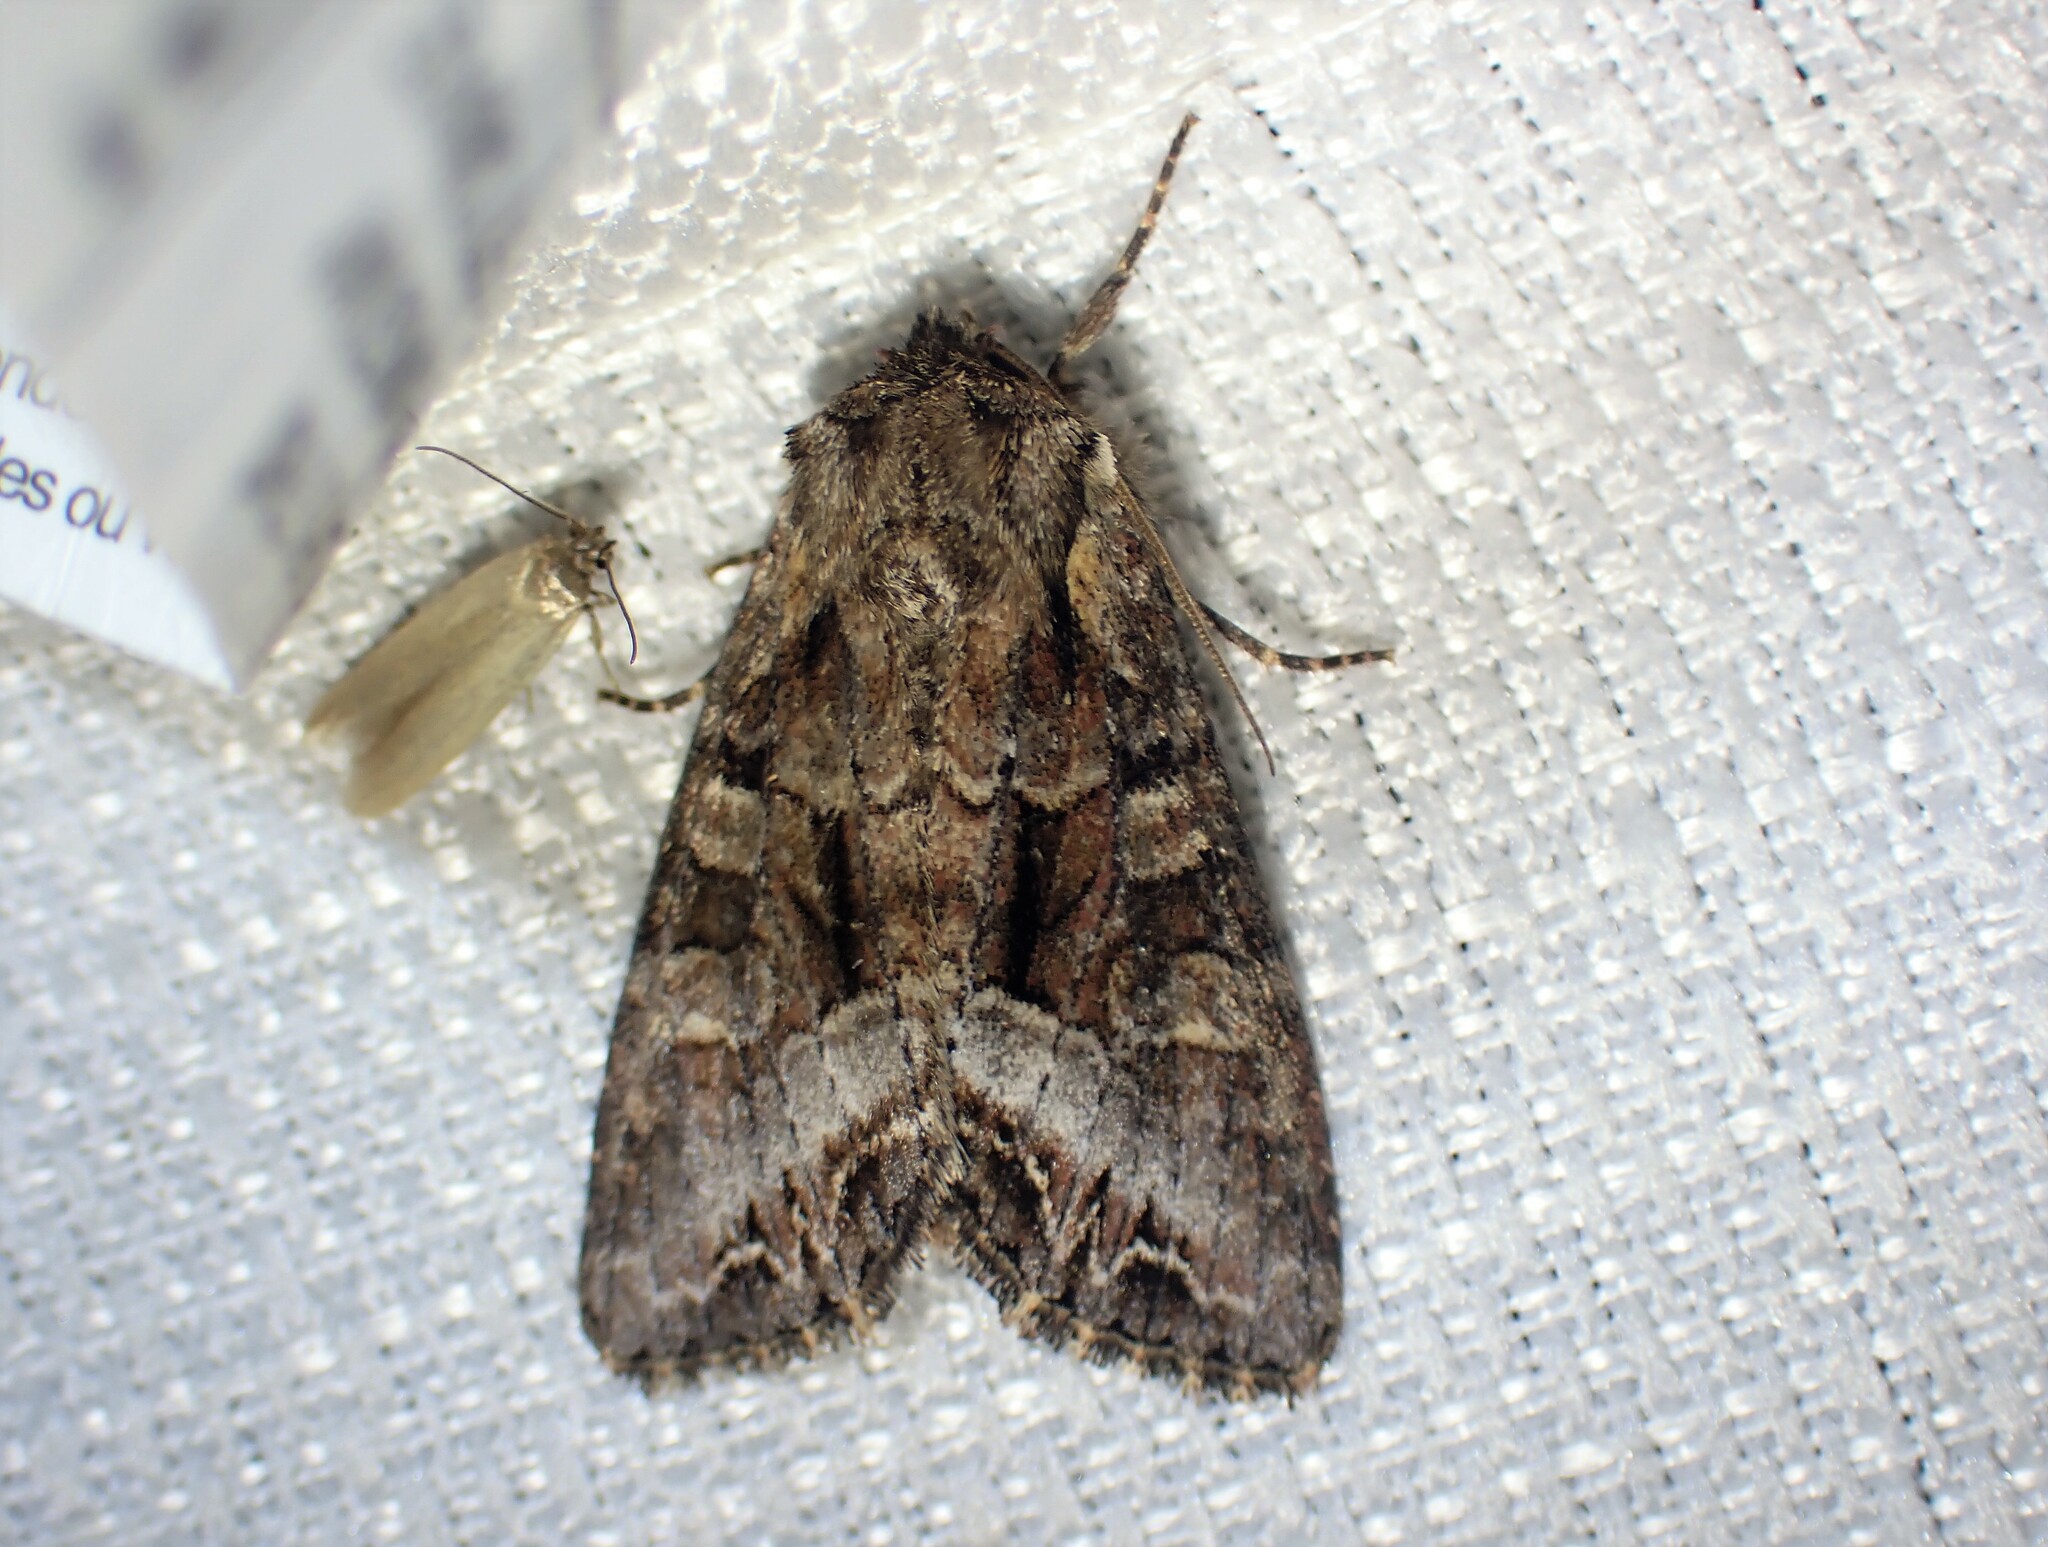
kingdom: Animalia
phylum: Arthropoda
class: Insecta
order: Lepidoptera
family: Noctuidae
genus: Lacanobia
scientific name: Lacanobia grandis
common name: Grand arches moth
